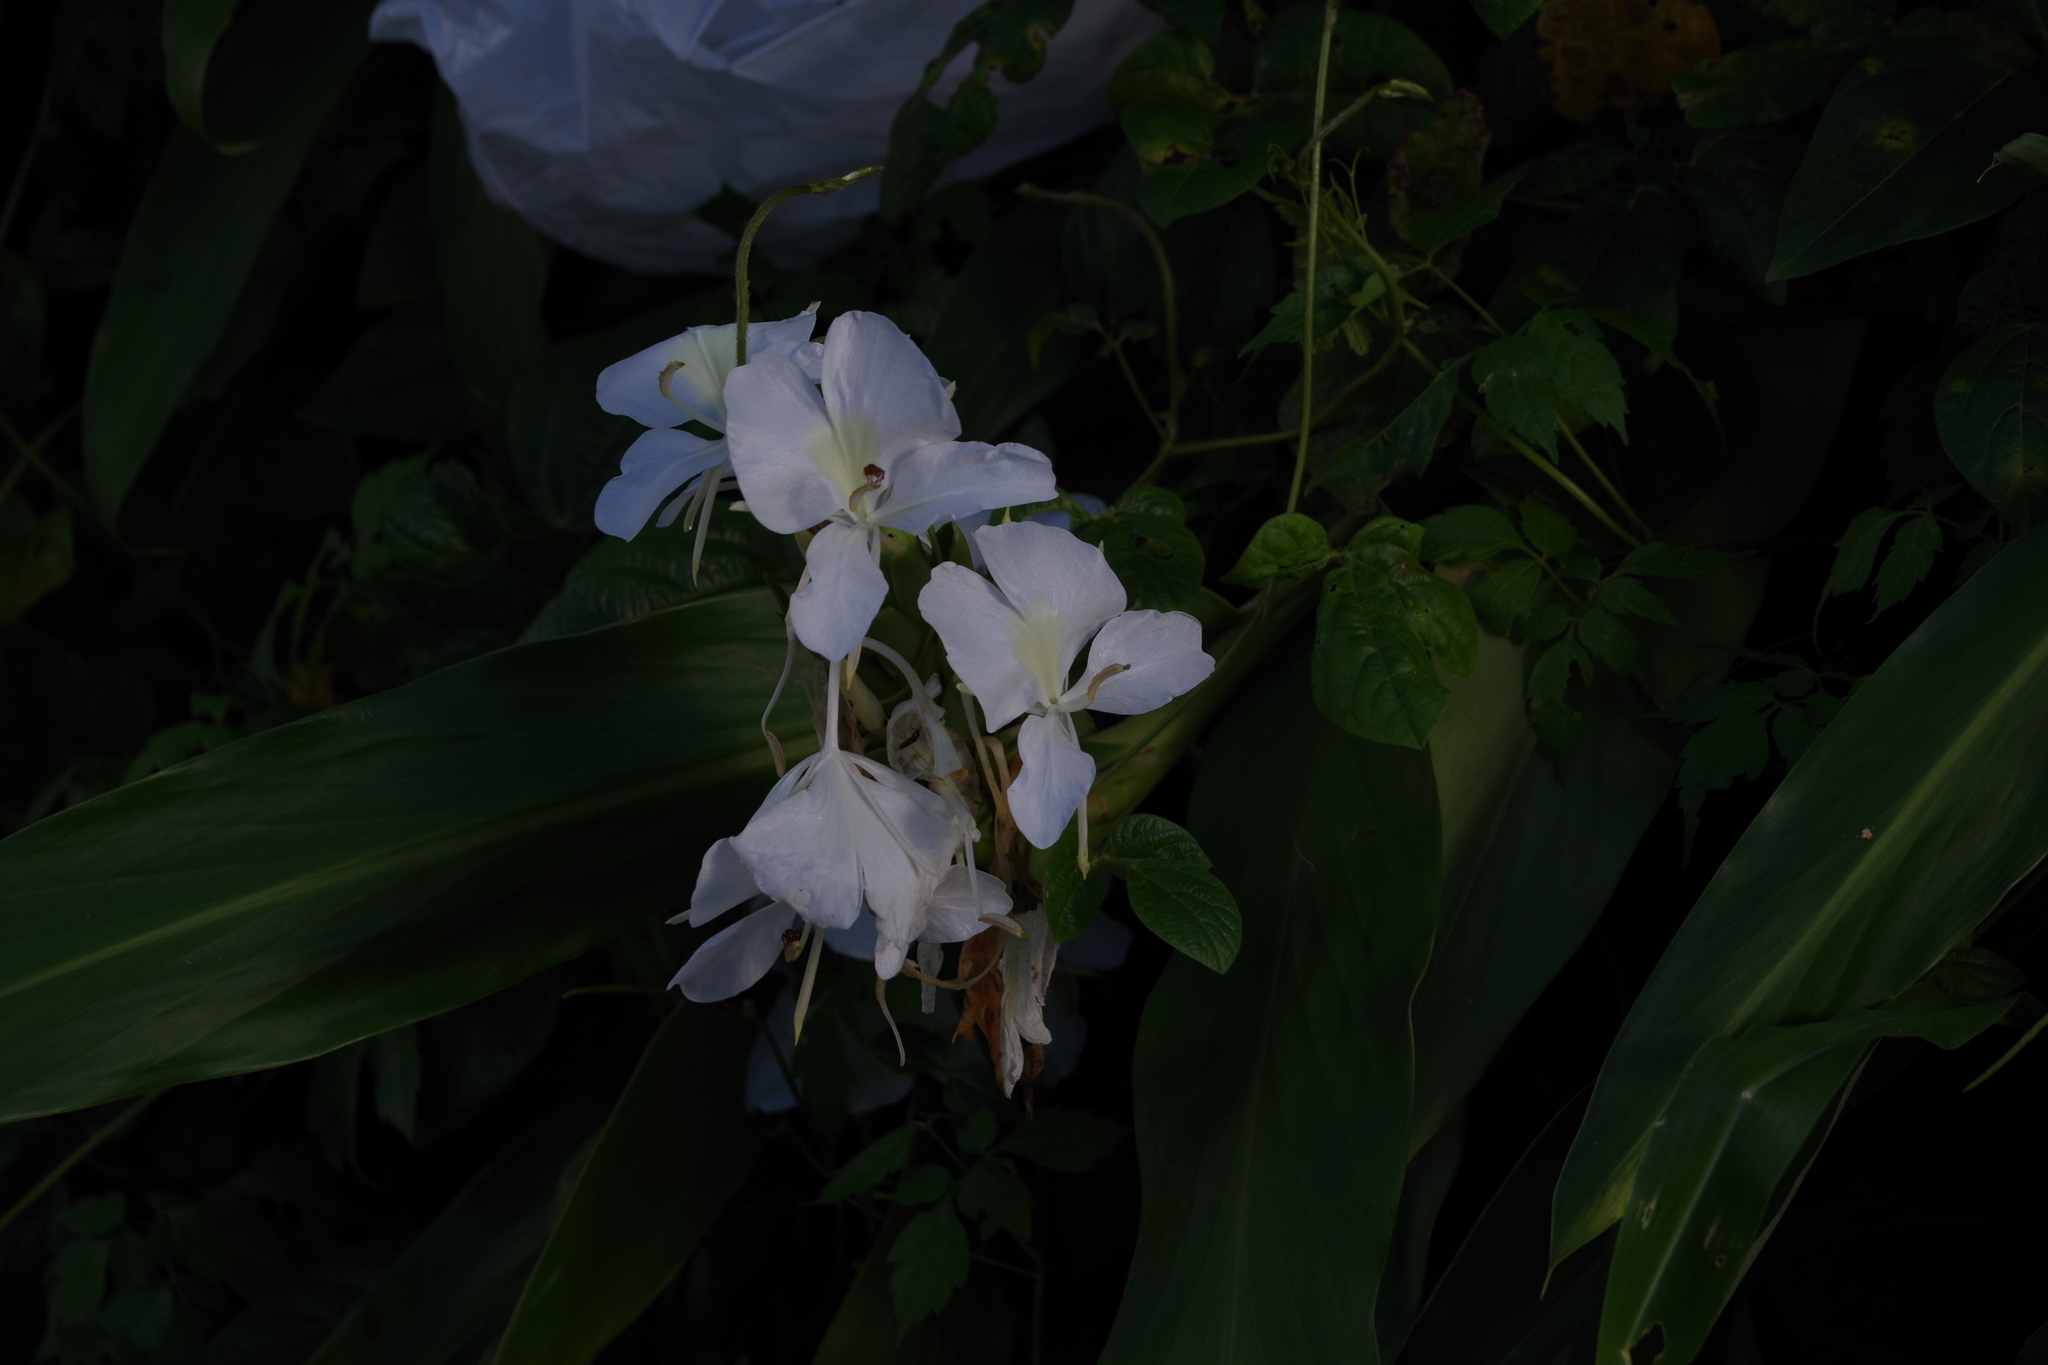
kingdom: Plantae
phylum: Tracheophyta
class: Liliopsida
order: Zingiberales
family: Zingiberaceae
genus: Hedychium
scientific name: Hedychium coronarium
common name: White garland-lily
